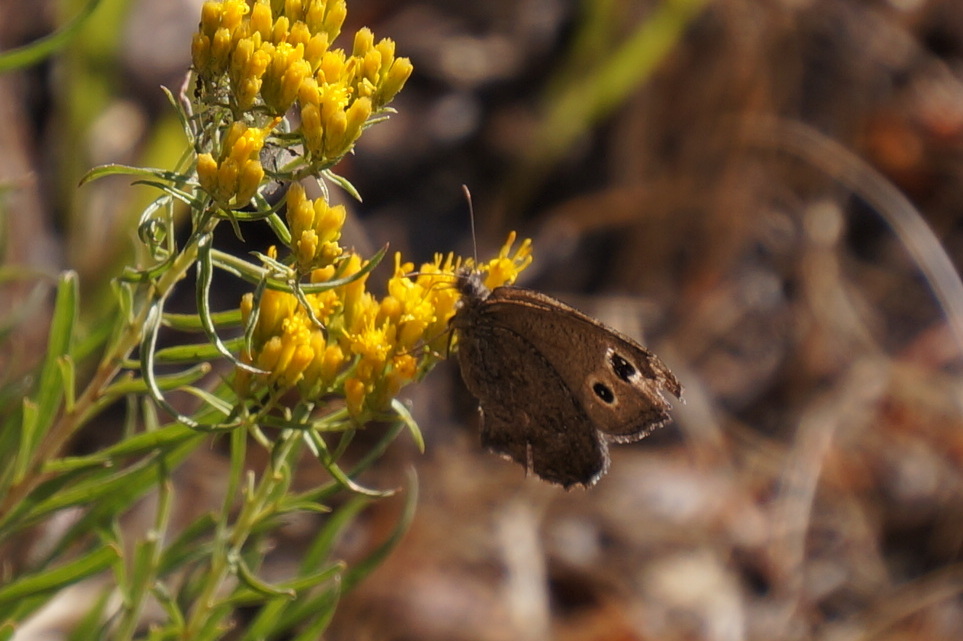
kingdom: Animalia
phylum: Arthropoda
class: Insecta
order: Lepidoptera
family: Nymphalidae
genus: Cercyonis
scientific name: Cercyonis pegala
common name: Common wood-nymph
